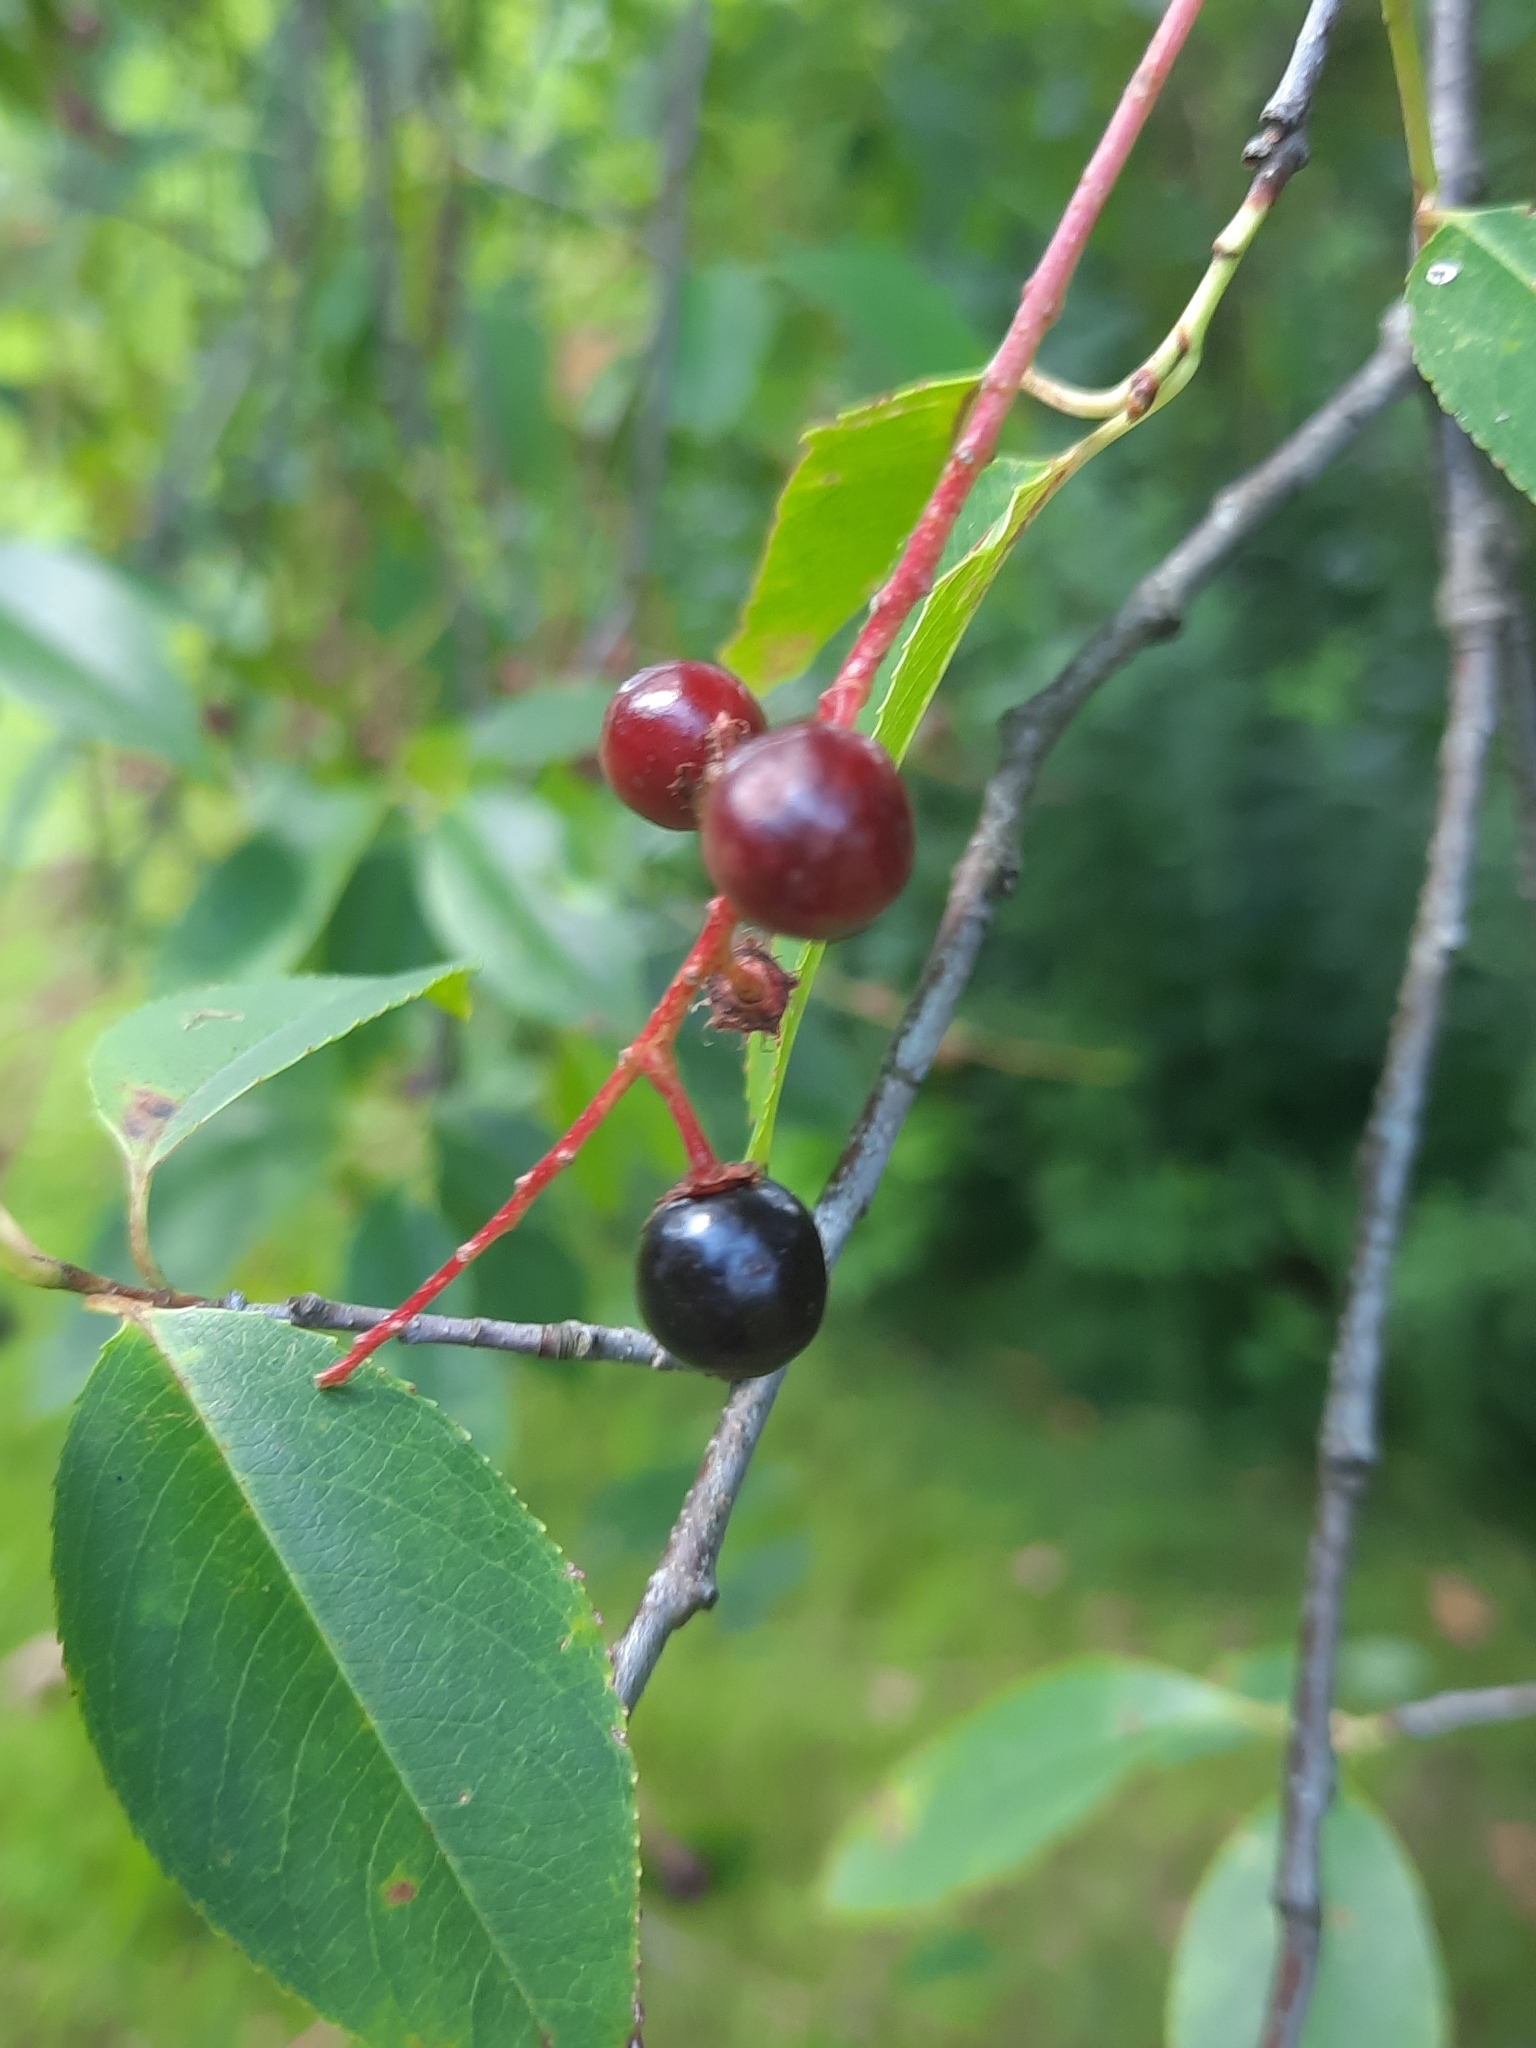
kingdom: Plantae
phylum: Tracheophyta
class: Magnoliopsida
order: Rosales
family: Rosaceae
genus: Prunus
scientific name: Prunus serotina
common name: Black cherry
